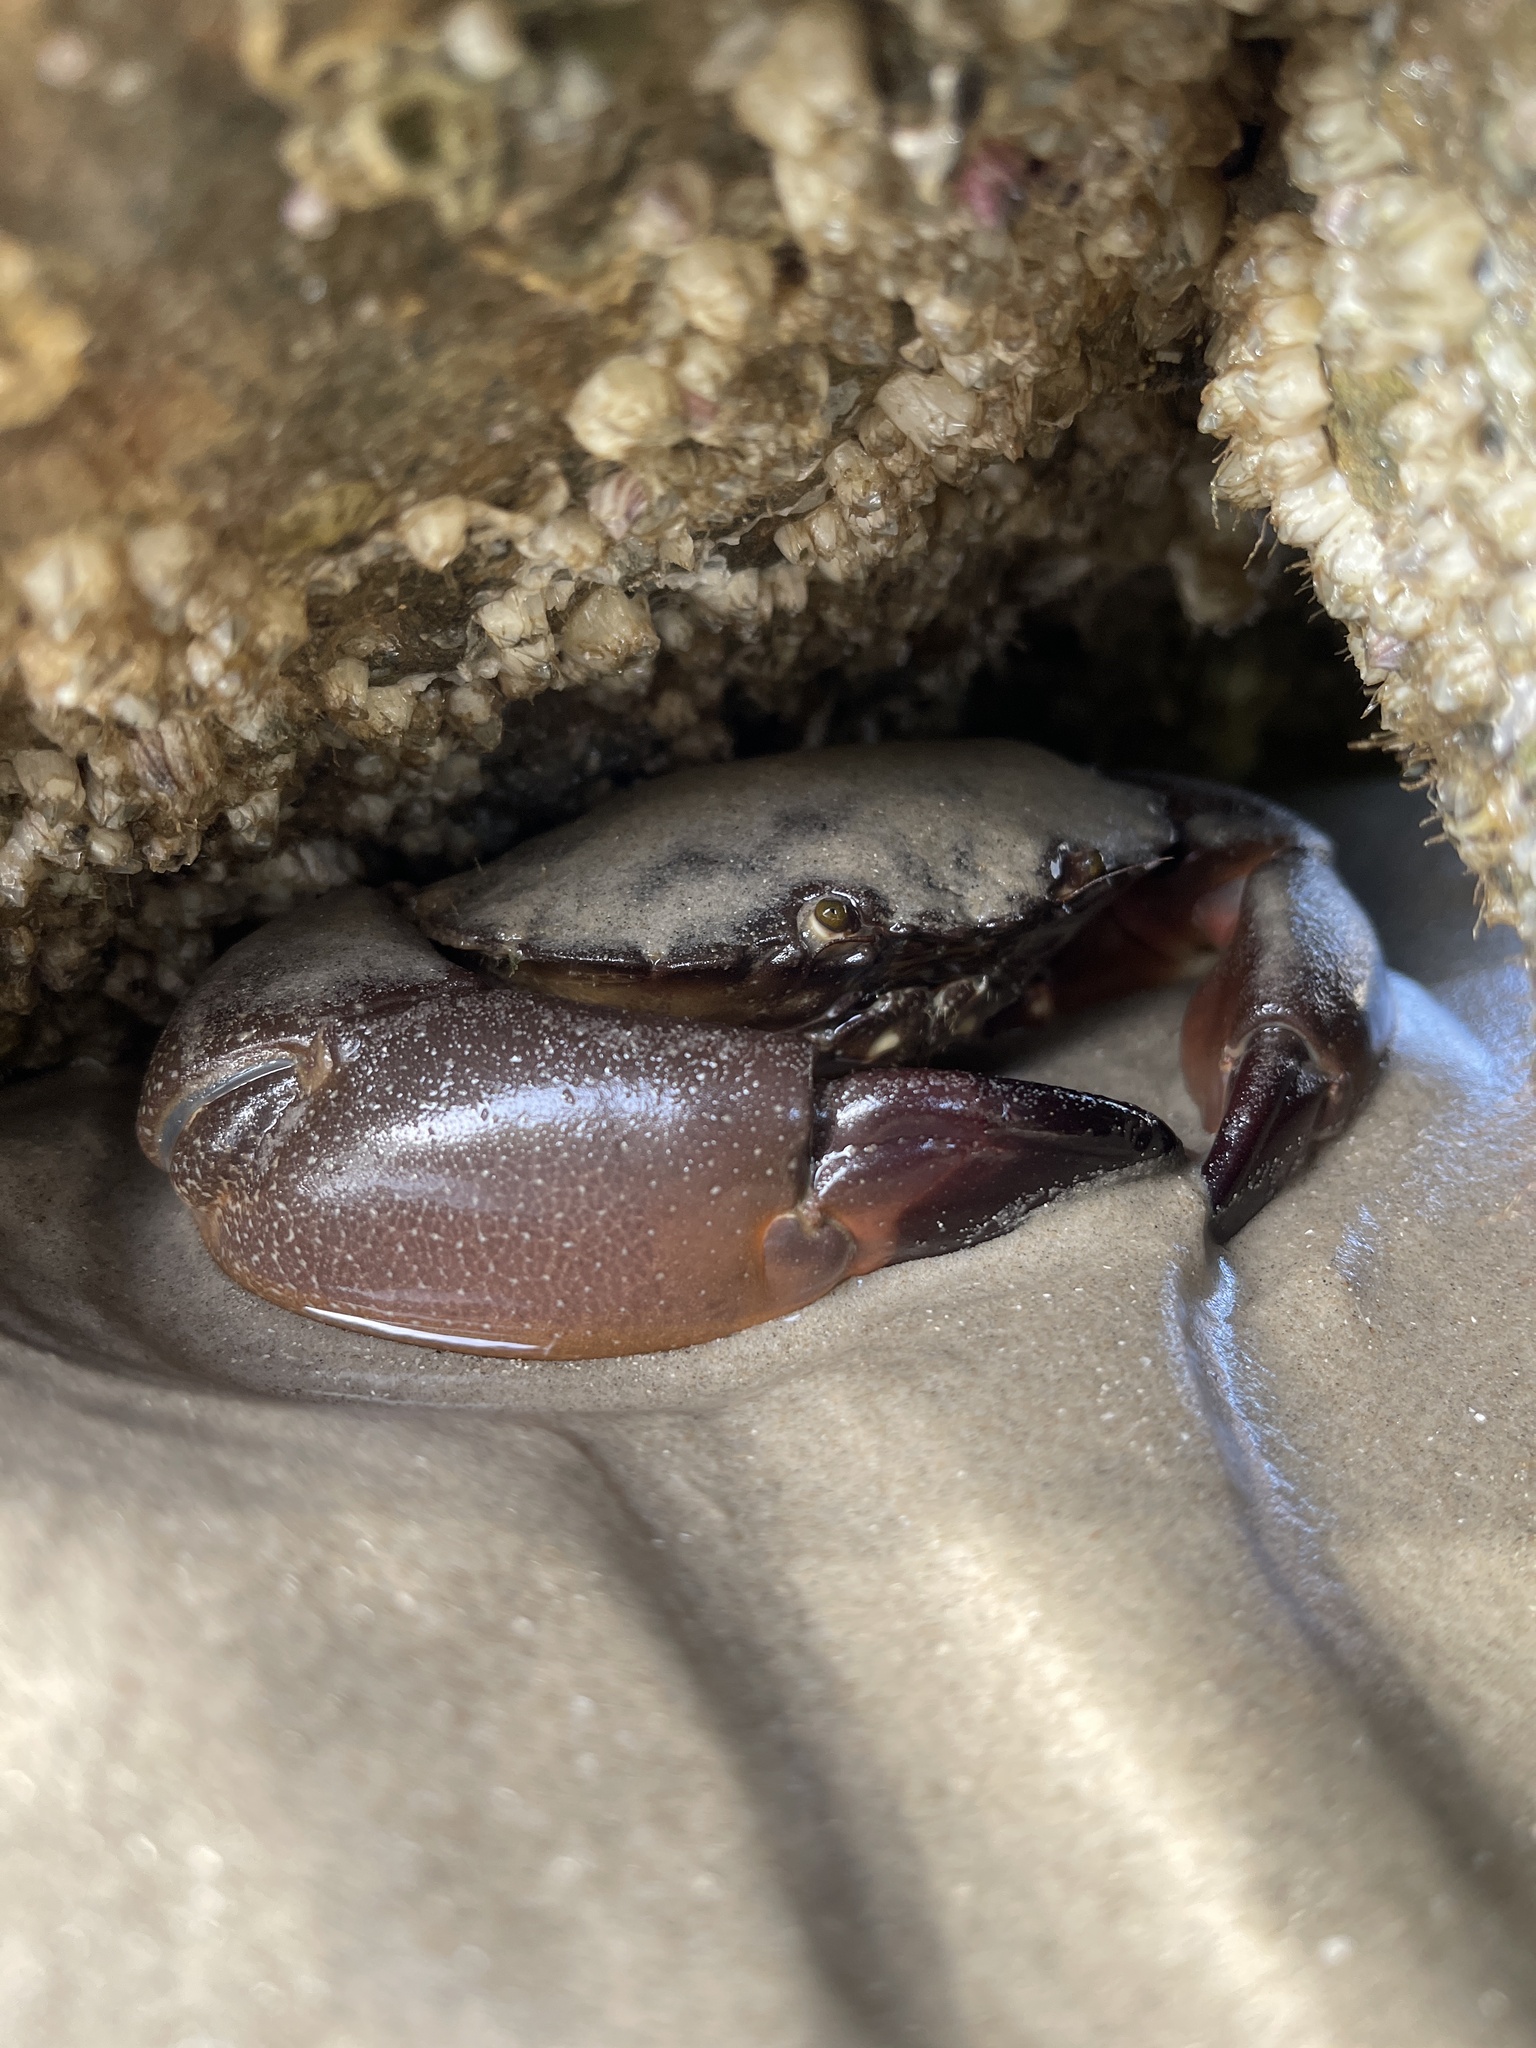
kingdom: Animalia
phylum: Arthropoda
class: Malacostraca
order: Decapoda
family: Menippidae
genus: Menippe
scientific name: Menippe adina
